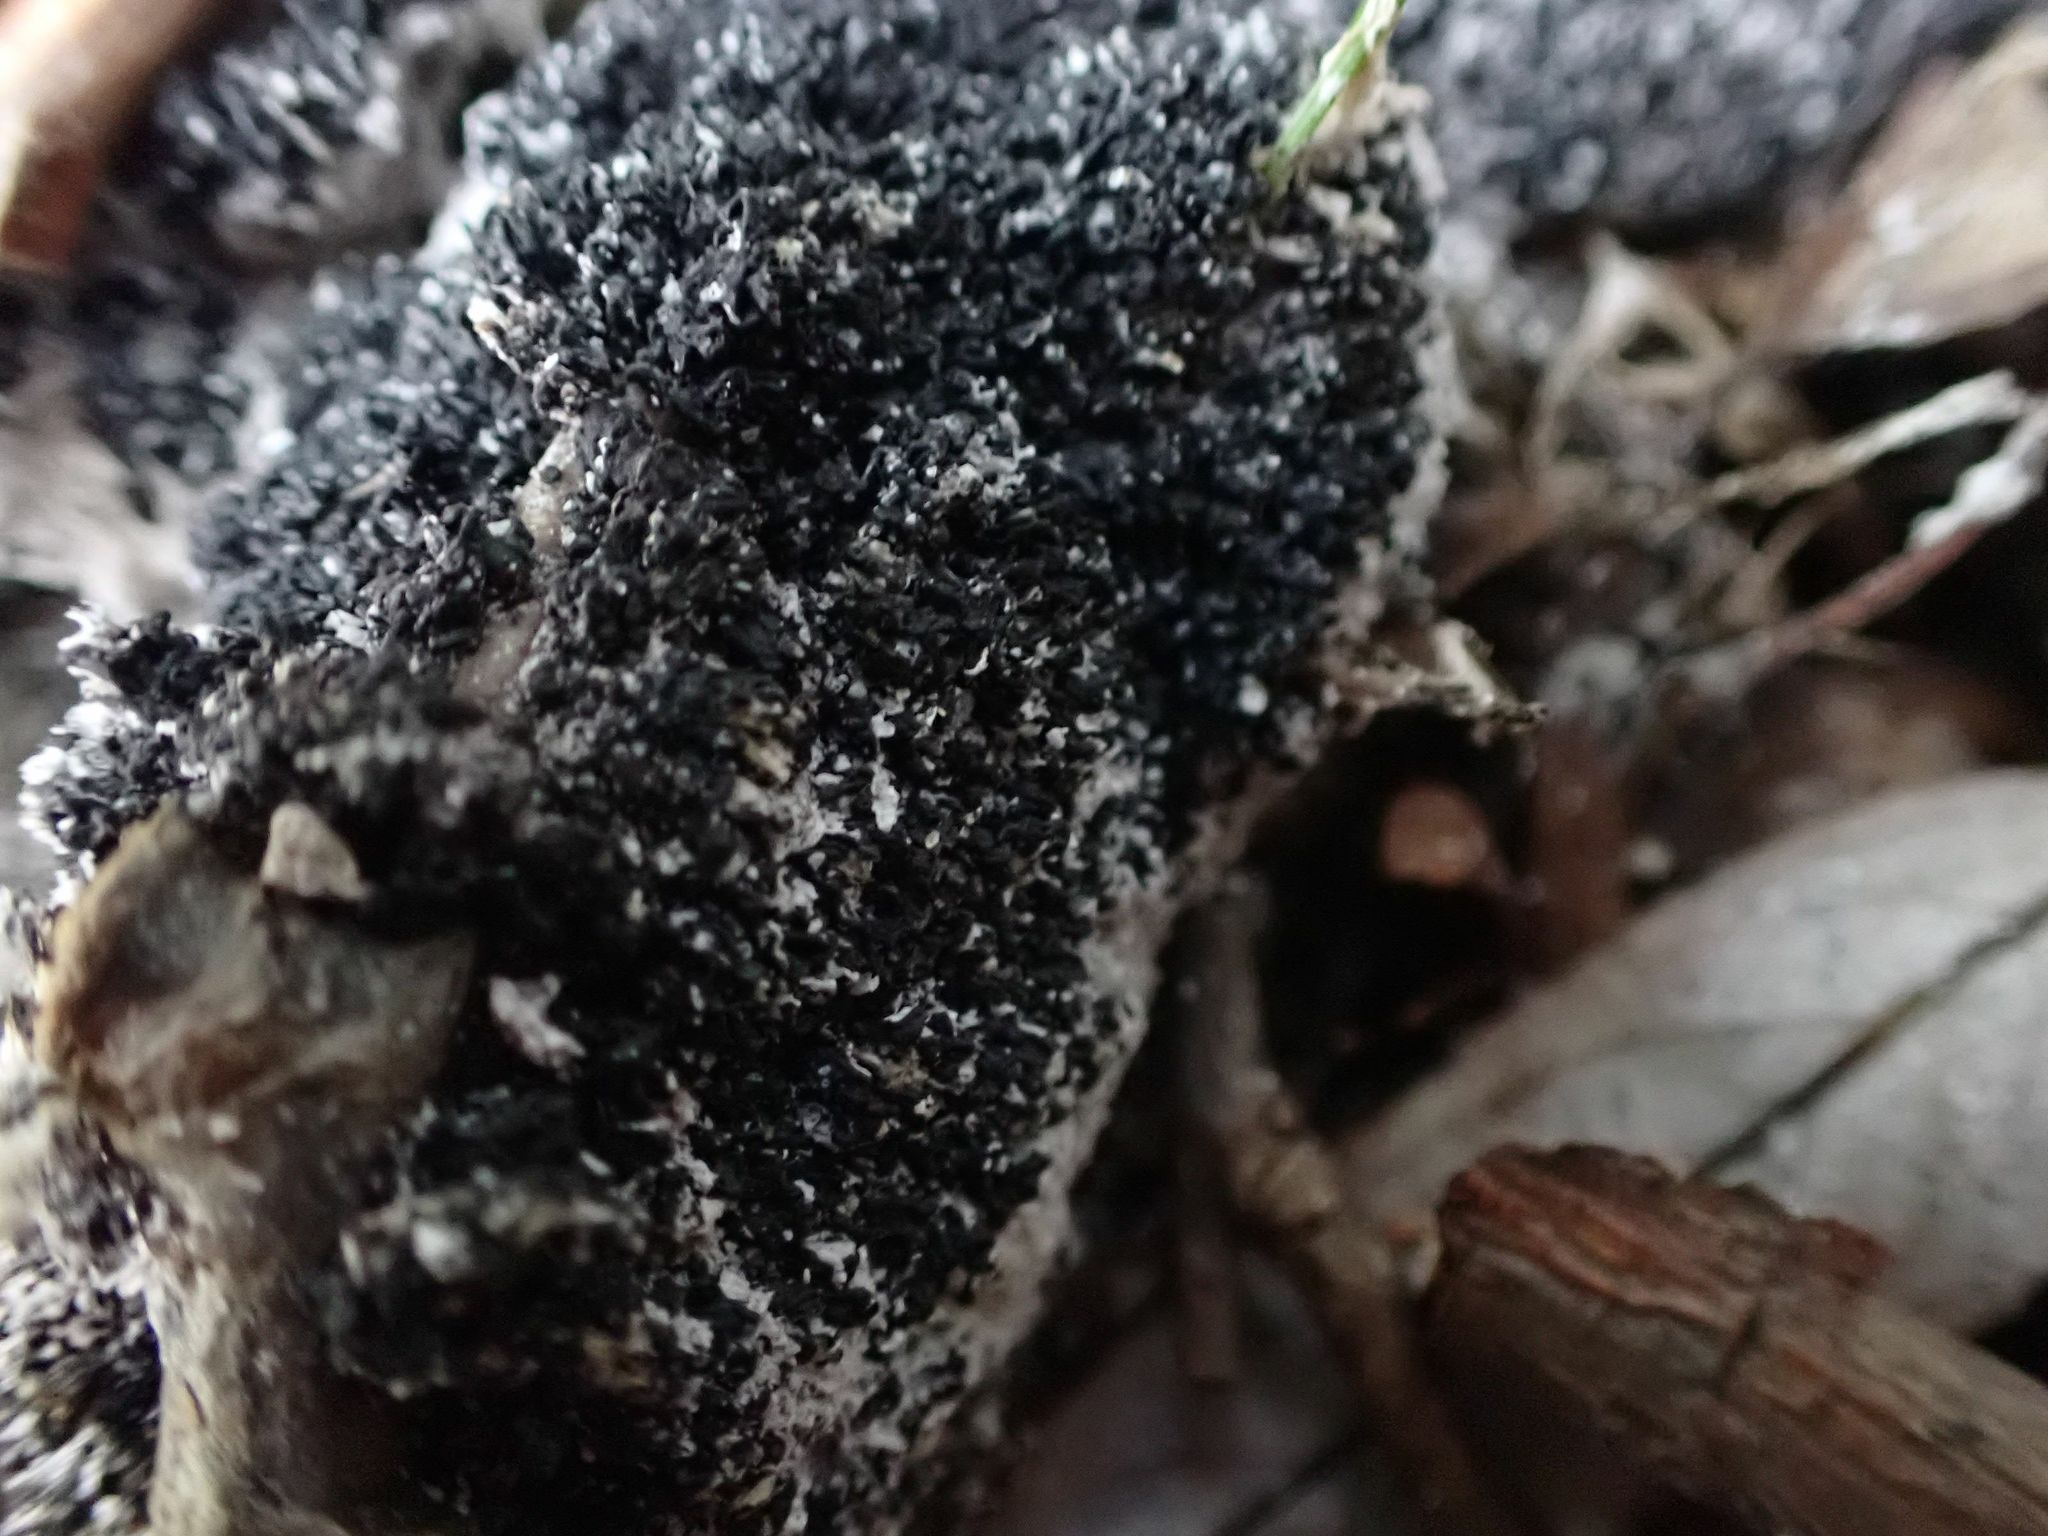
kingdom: Protozoa
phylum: Mycetozoa
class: Myxomycetes
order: Physarales
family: Physaraceae
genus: Didymium
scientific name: Didymium
